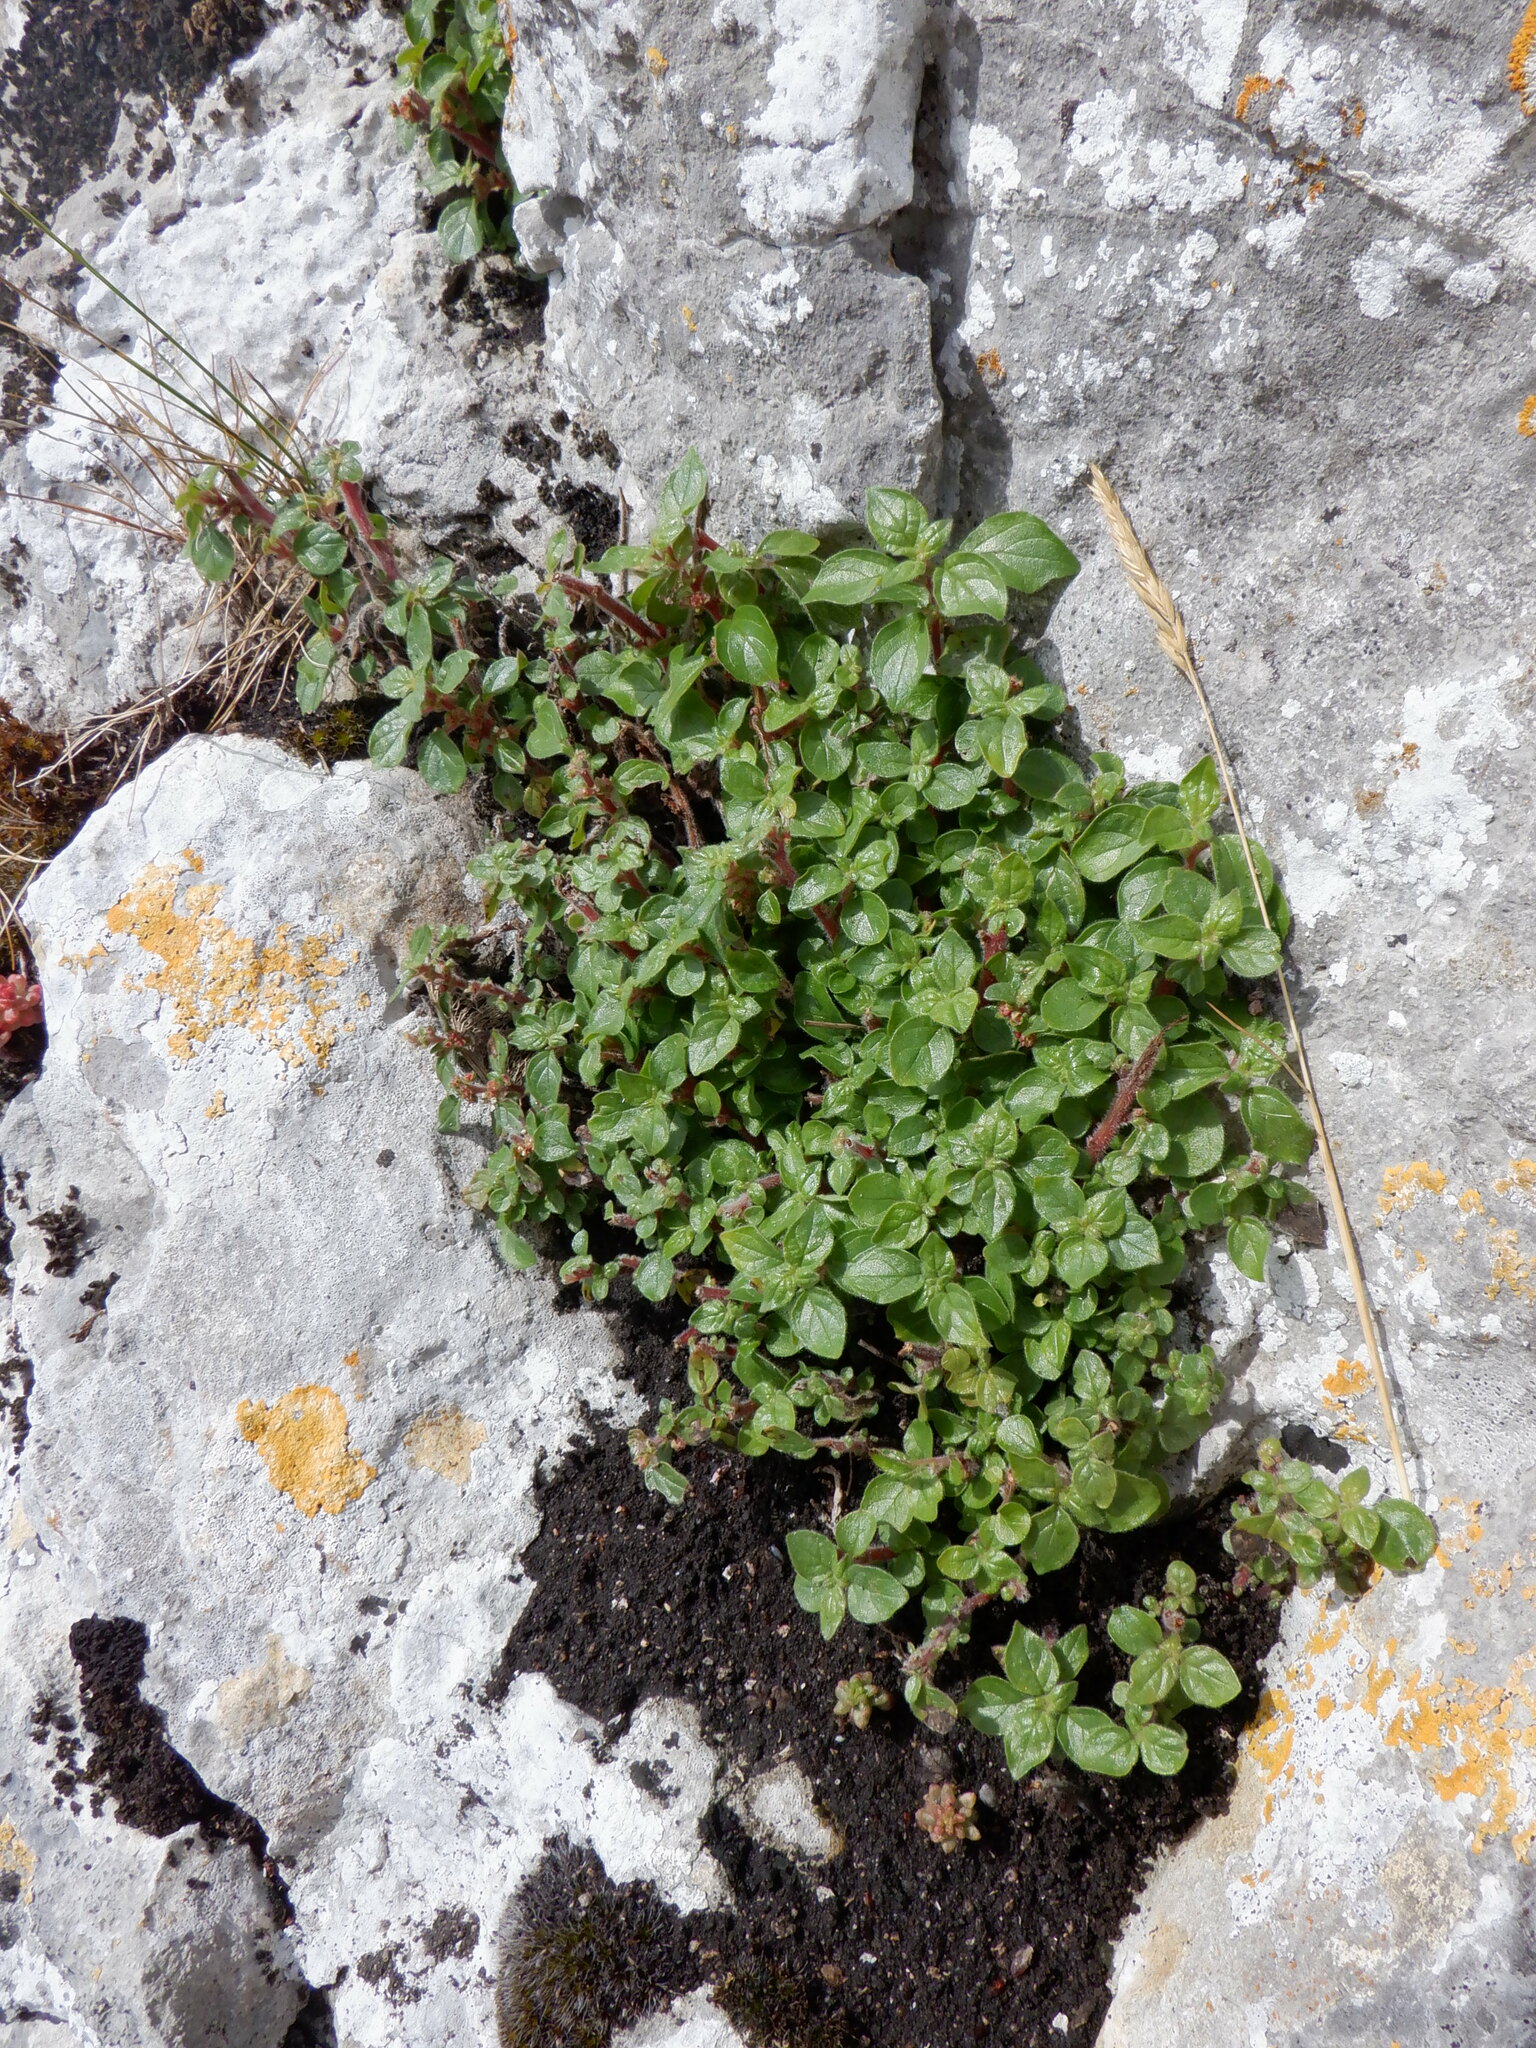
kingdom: Plantae
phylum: Tracheophyta
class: Magnoliopsida
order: Rosales
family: Urticaceae
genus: Parietaria
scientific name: Parietaria judaica
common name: Pellitory-of-the-wall
